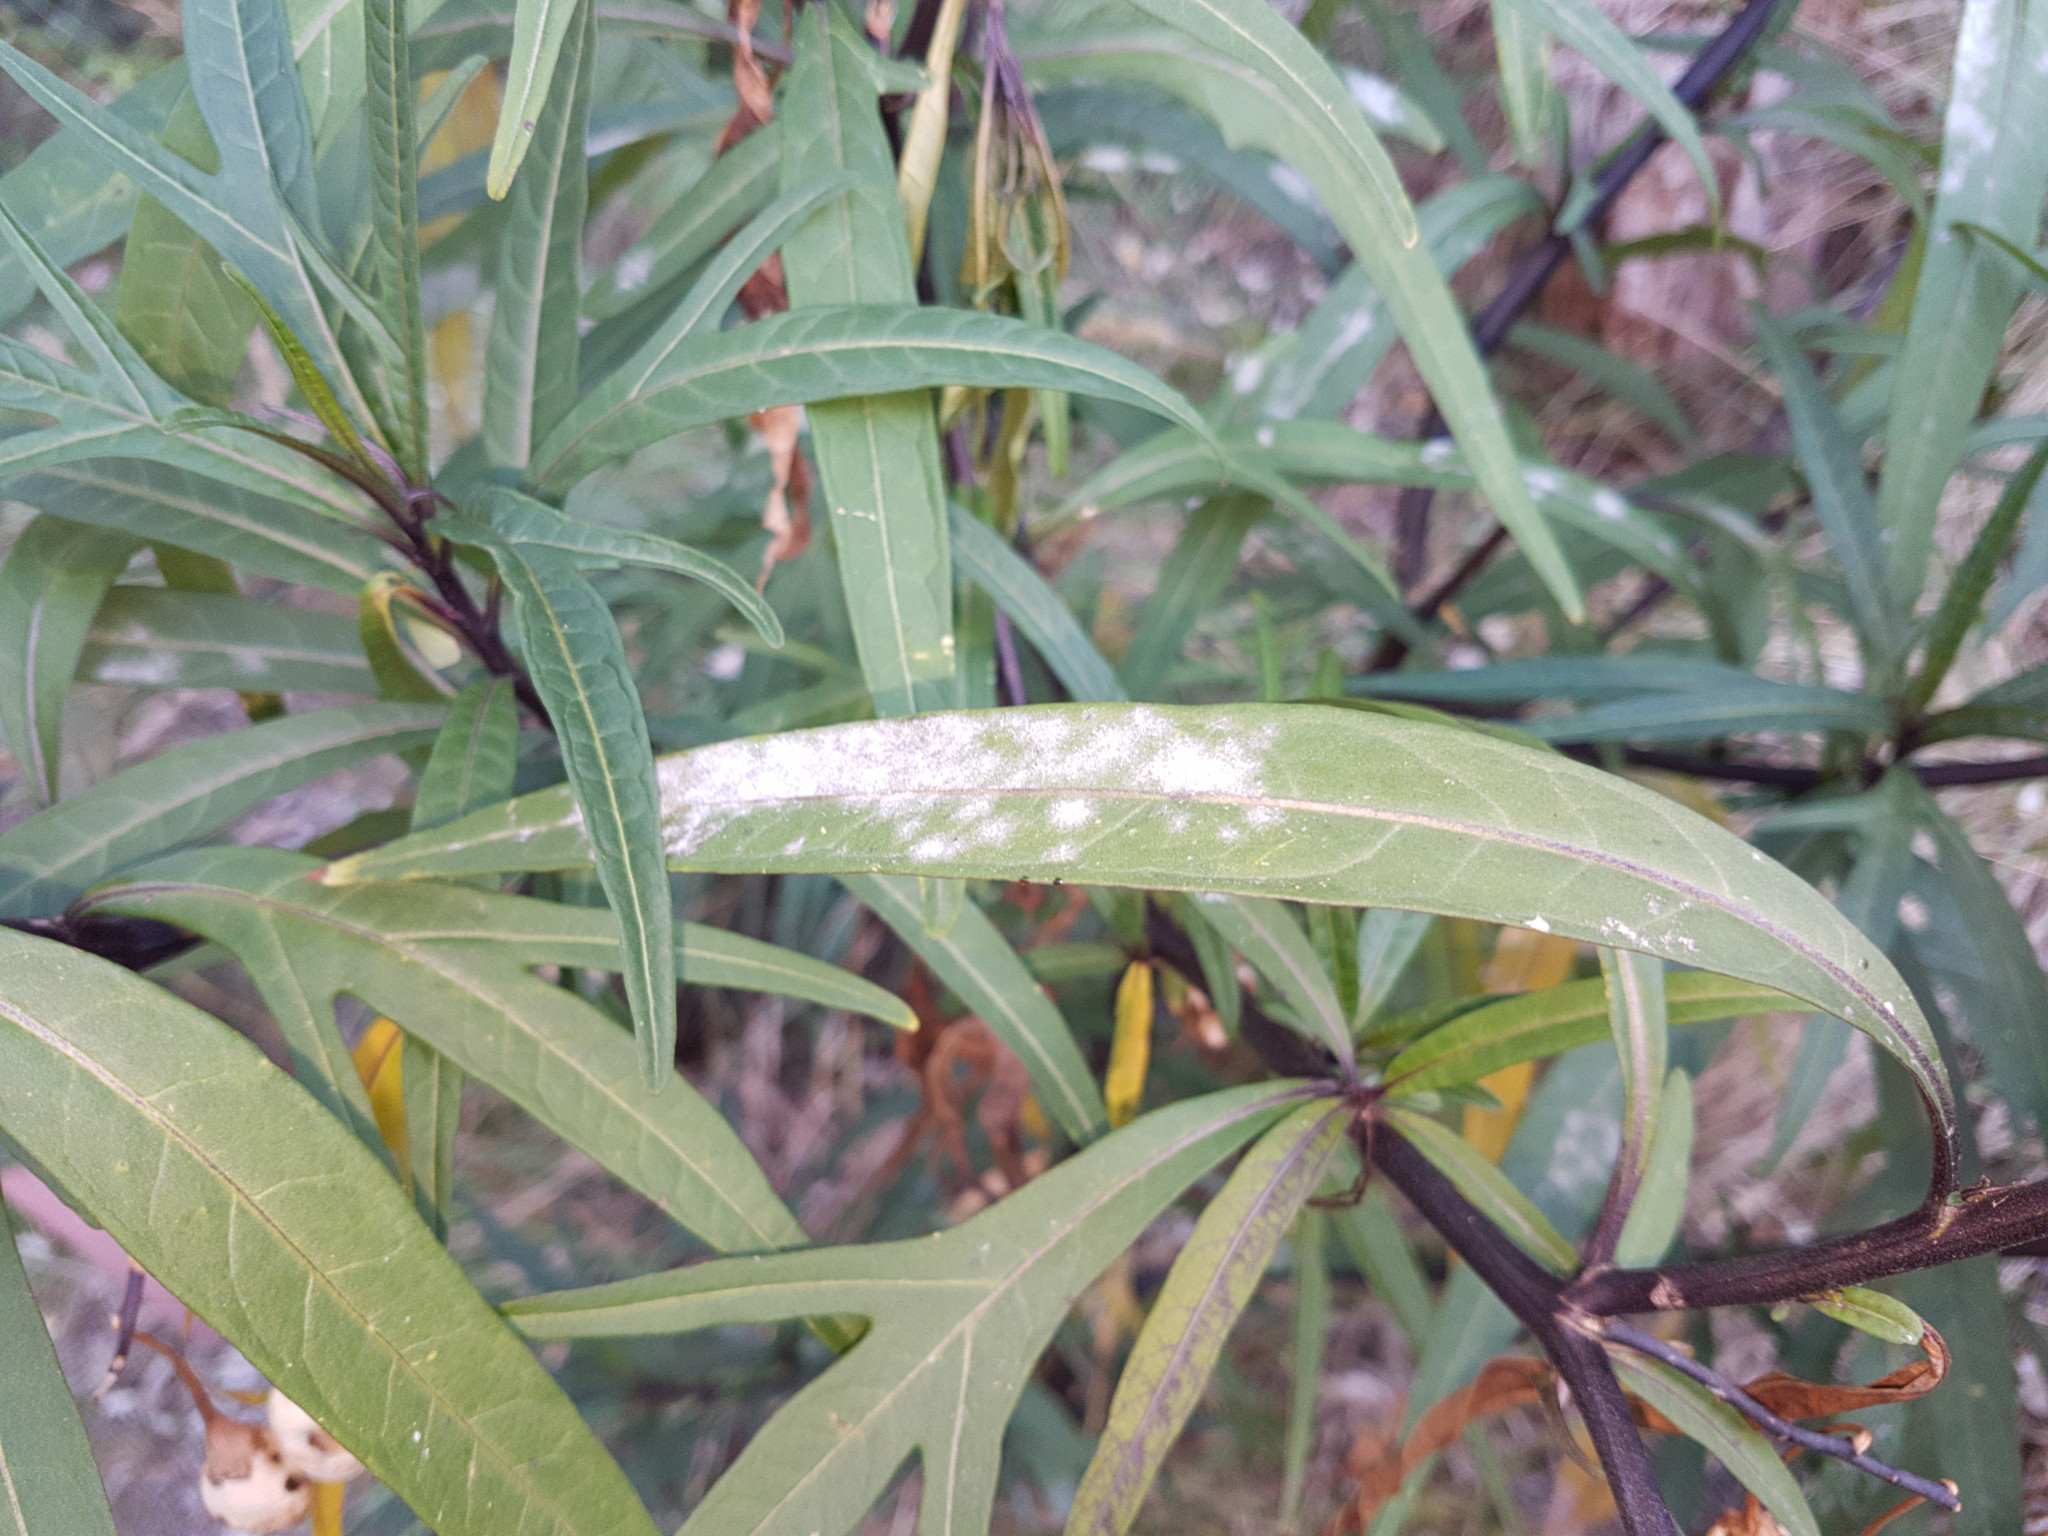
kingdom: Fungi
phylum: Ascomycota
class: Leotiomycetes
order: Helotiales
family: Erysiphaceae
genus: Golovinomyces
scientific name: Golovinomyces longipes
